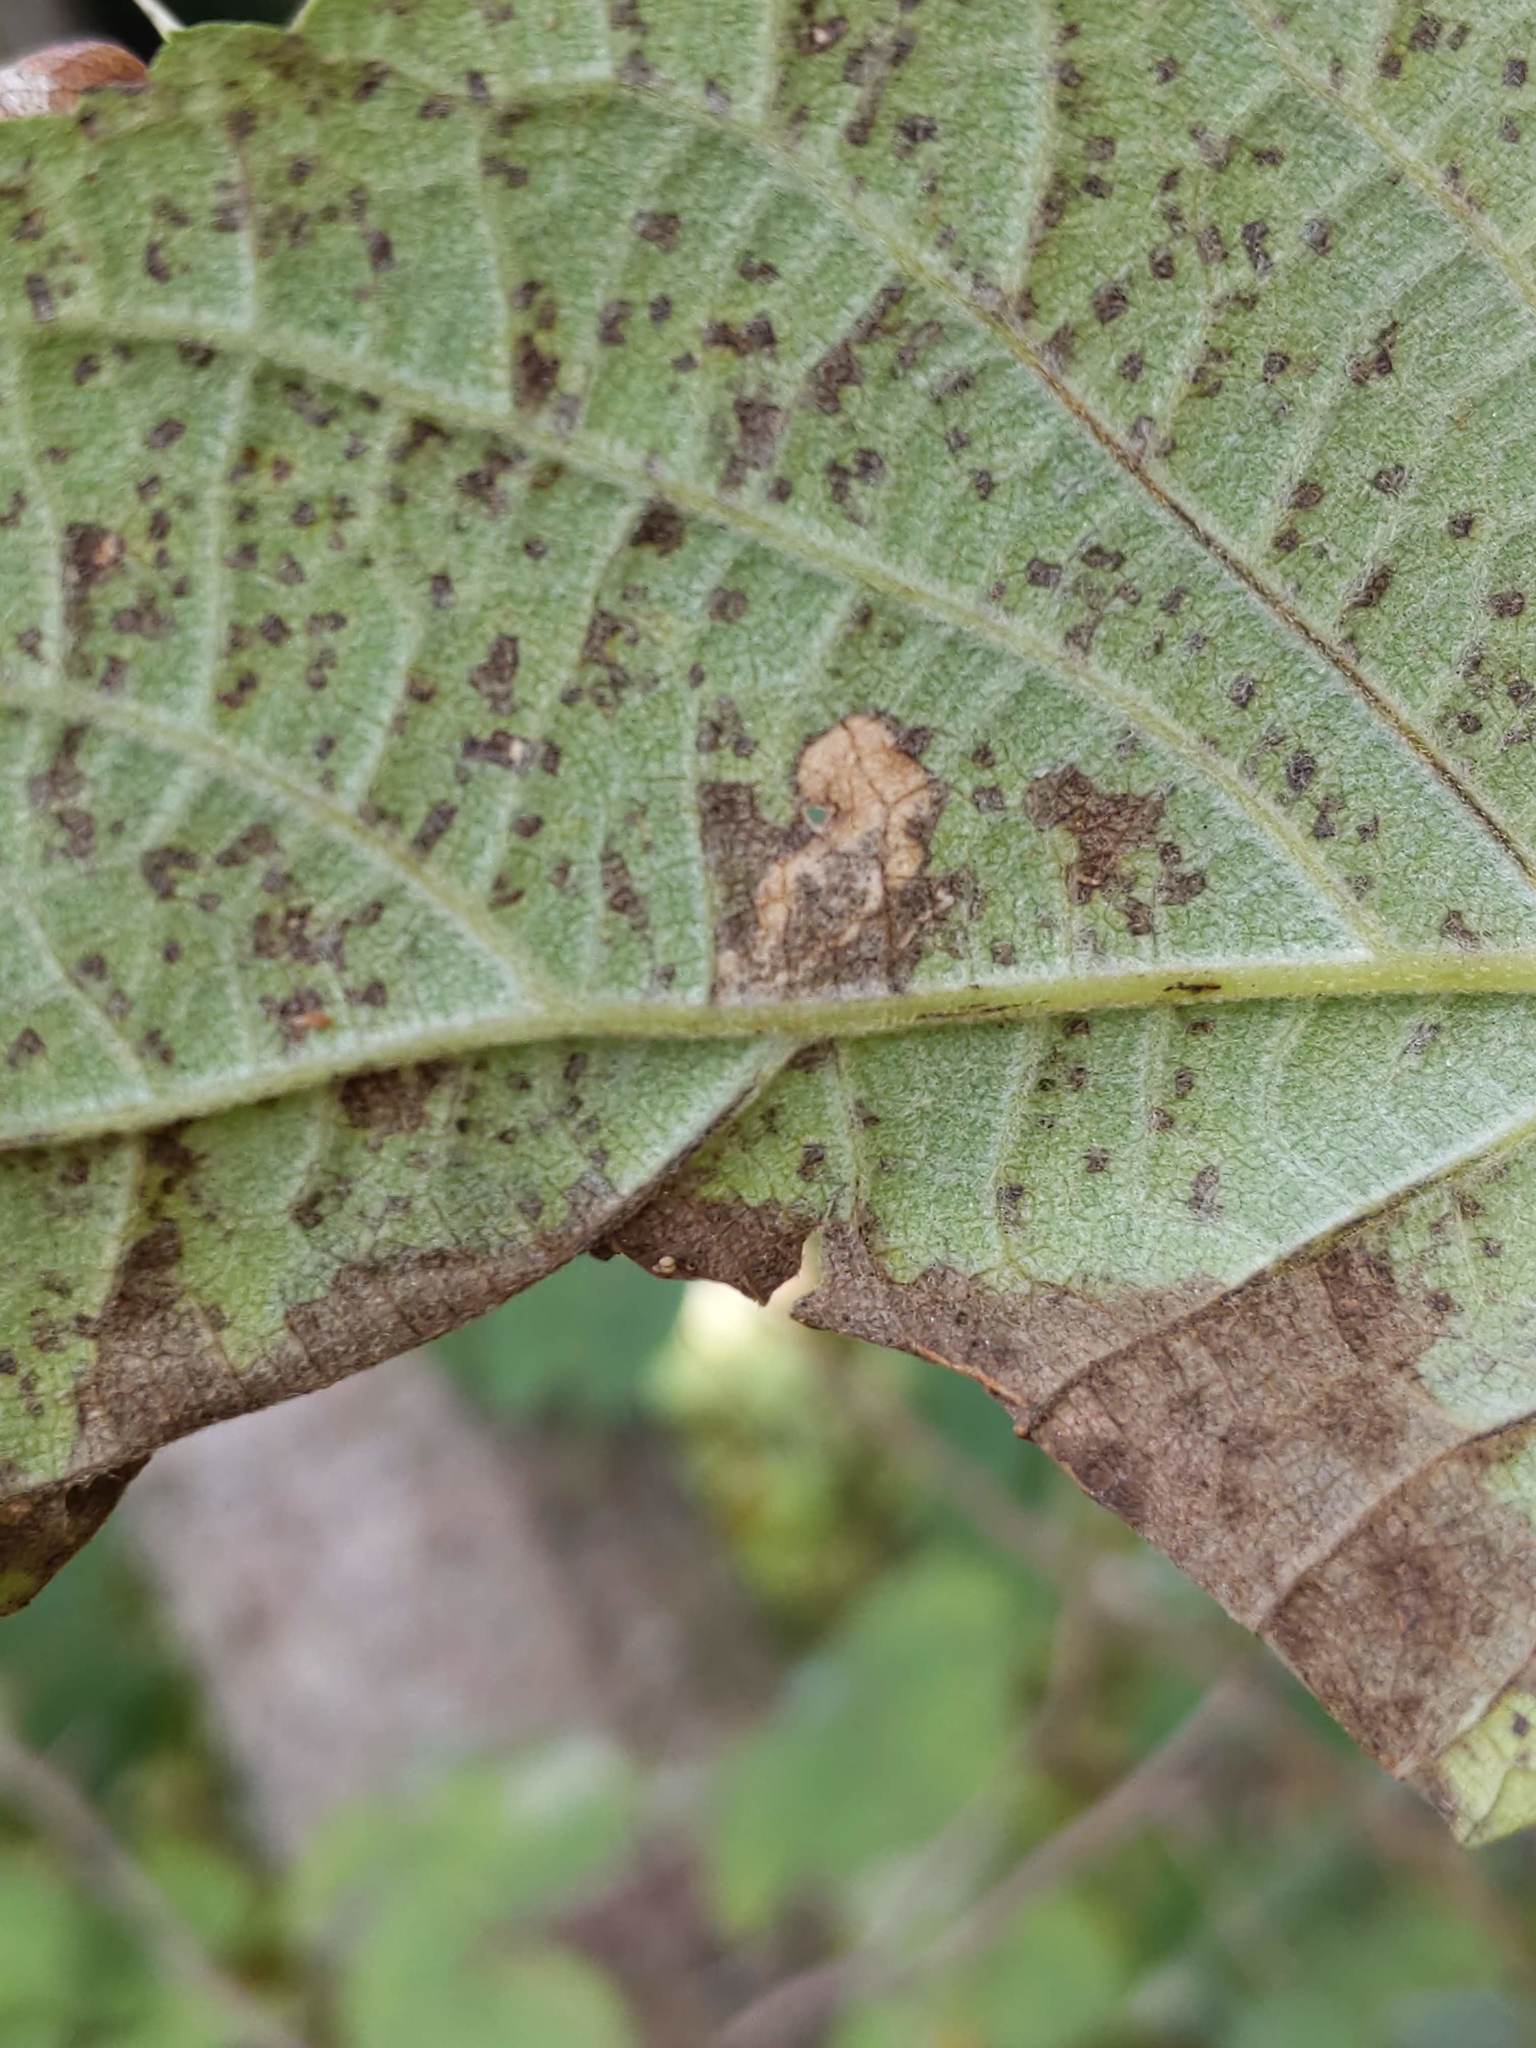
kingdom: Animalia
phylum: Arthropoda
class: Insecta
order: Lepidoptera
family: Heliozelidae
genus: Aspilanta
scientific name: Aspilanta hydrangaeella
